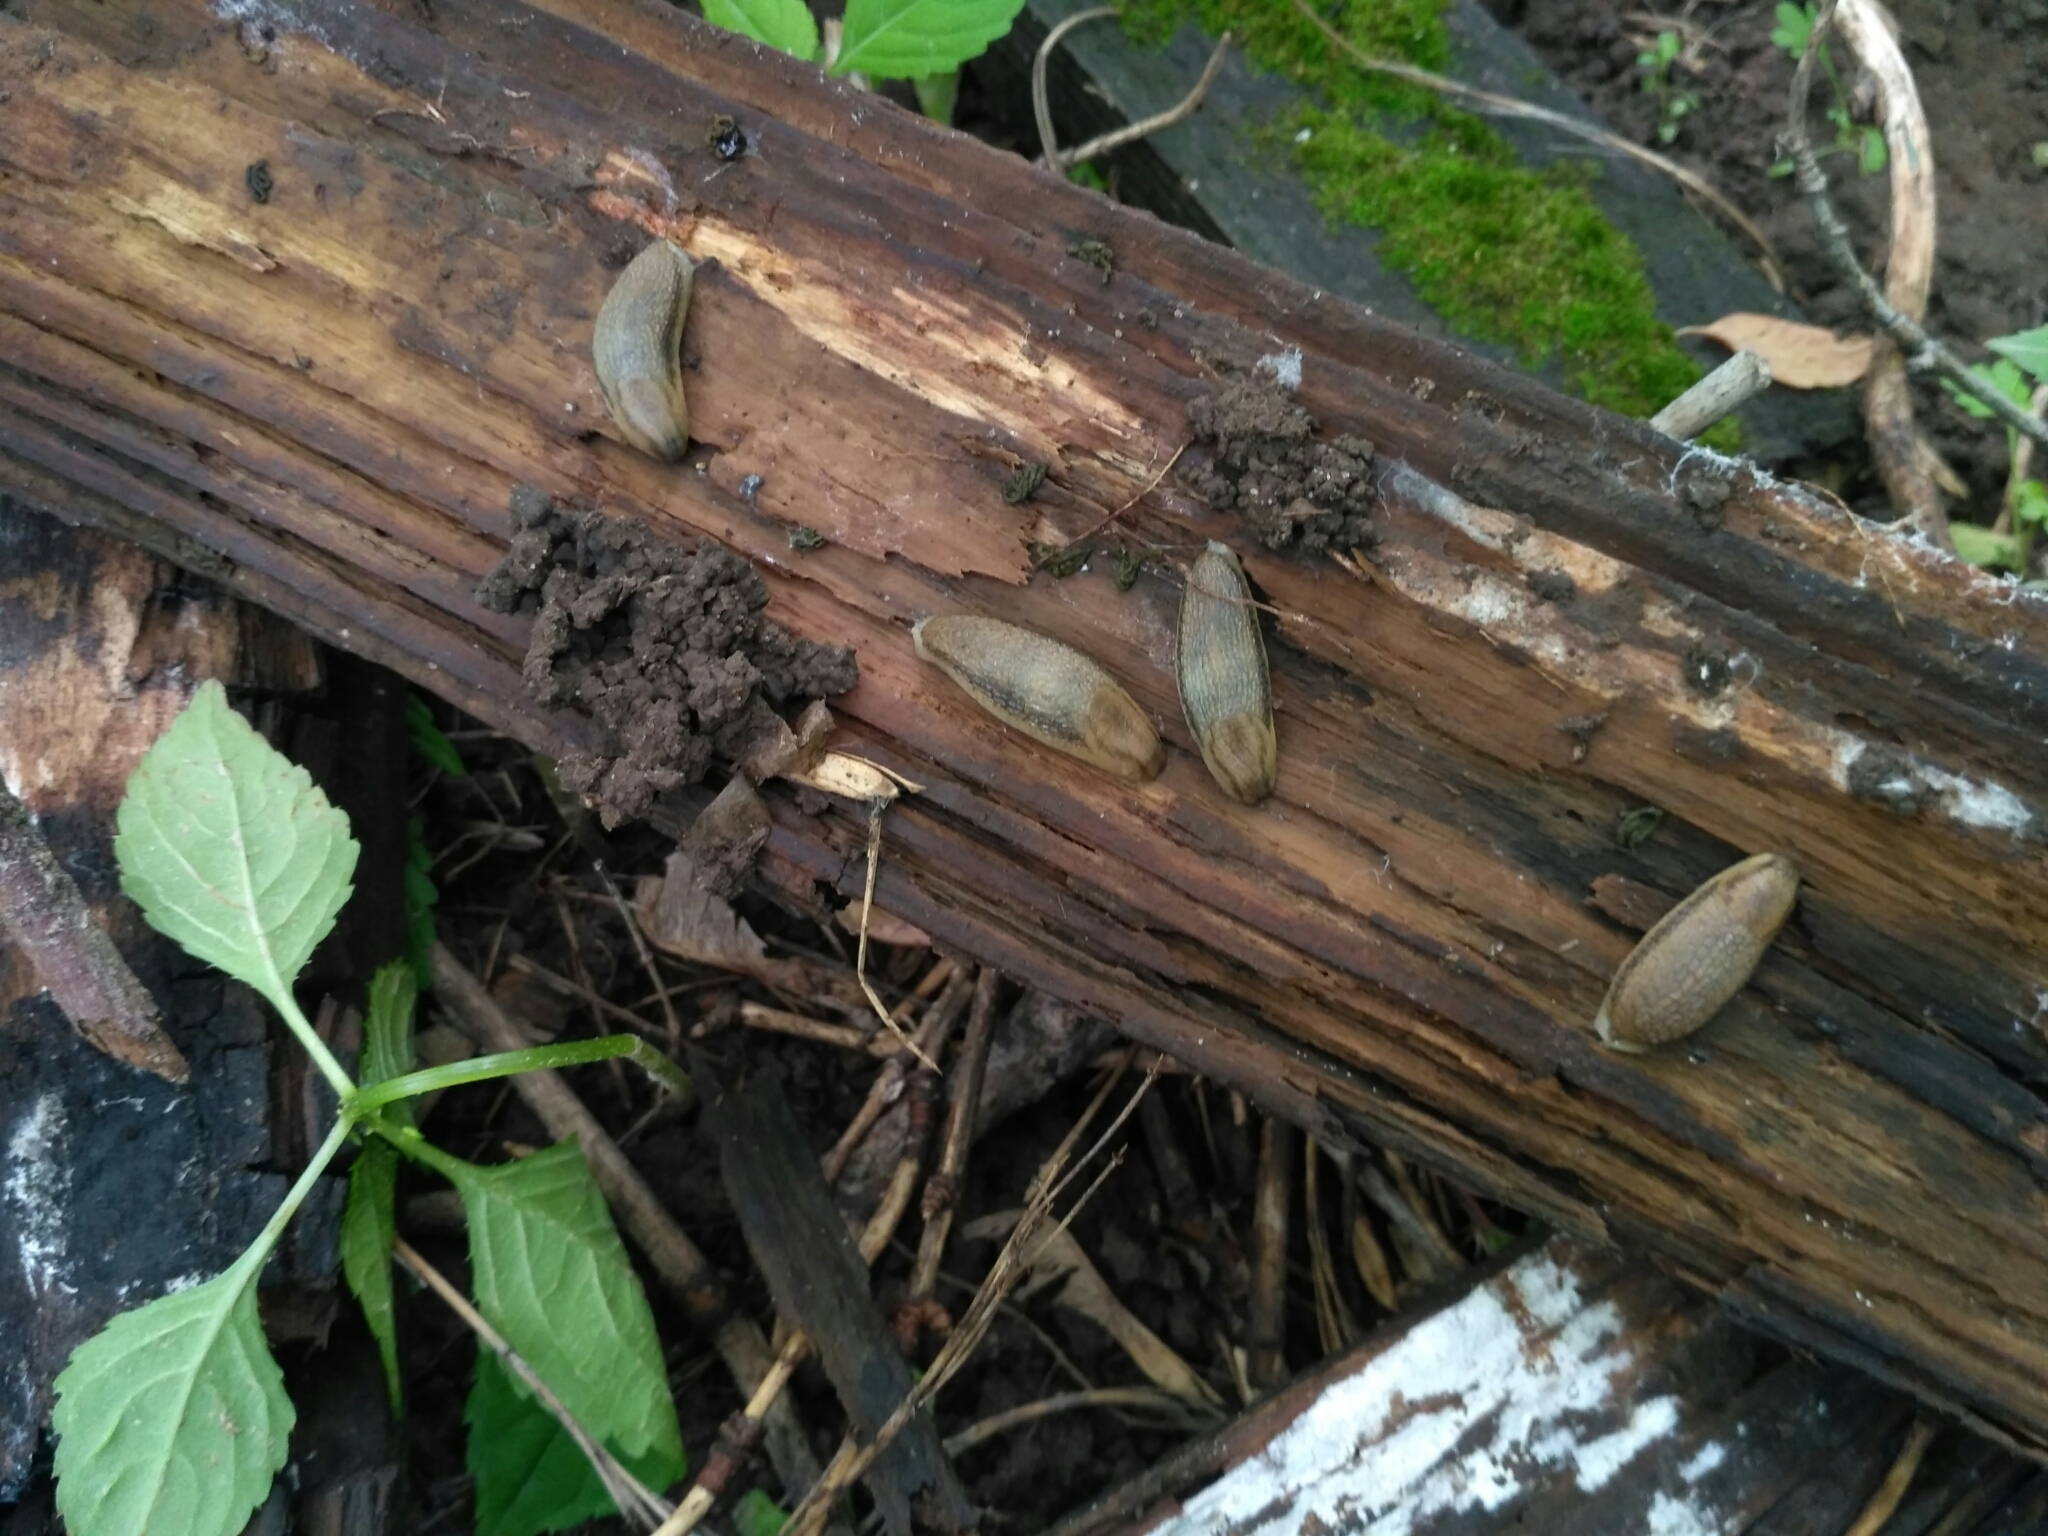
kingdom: Animalia
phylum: Mollusca
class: Gastropoda
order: Stylommatophora
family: Arionidae
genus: Arion
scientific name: Arion fasciatus
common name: Orange-banded arion
